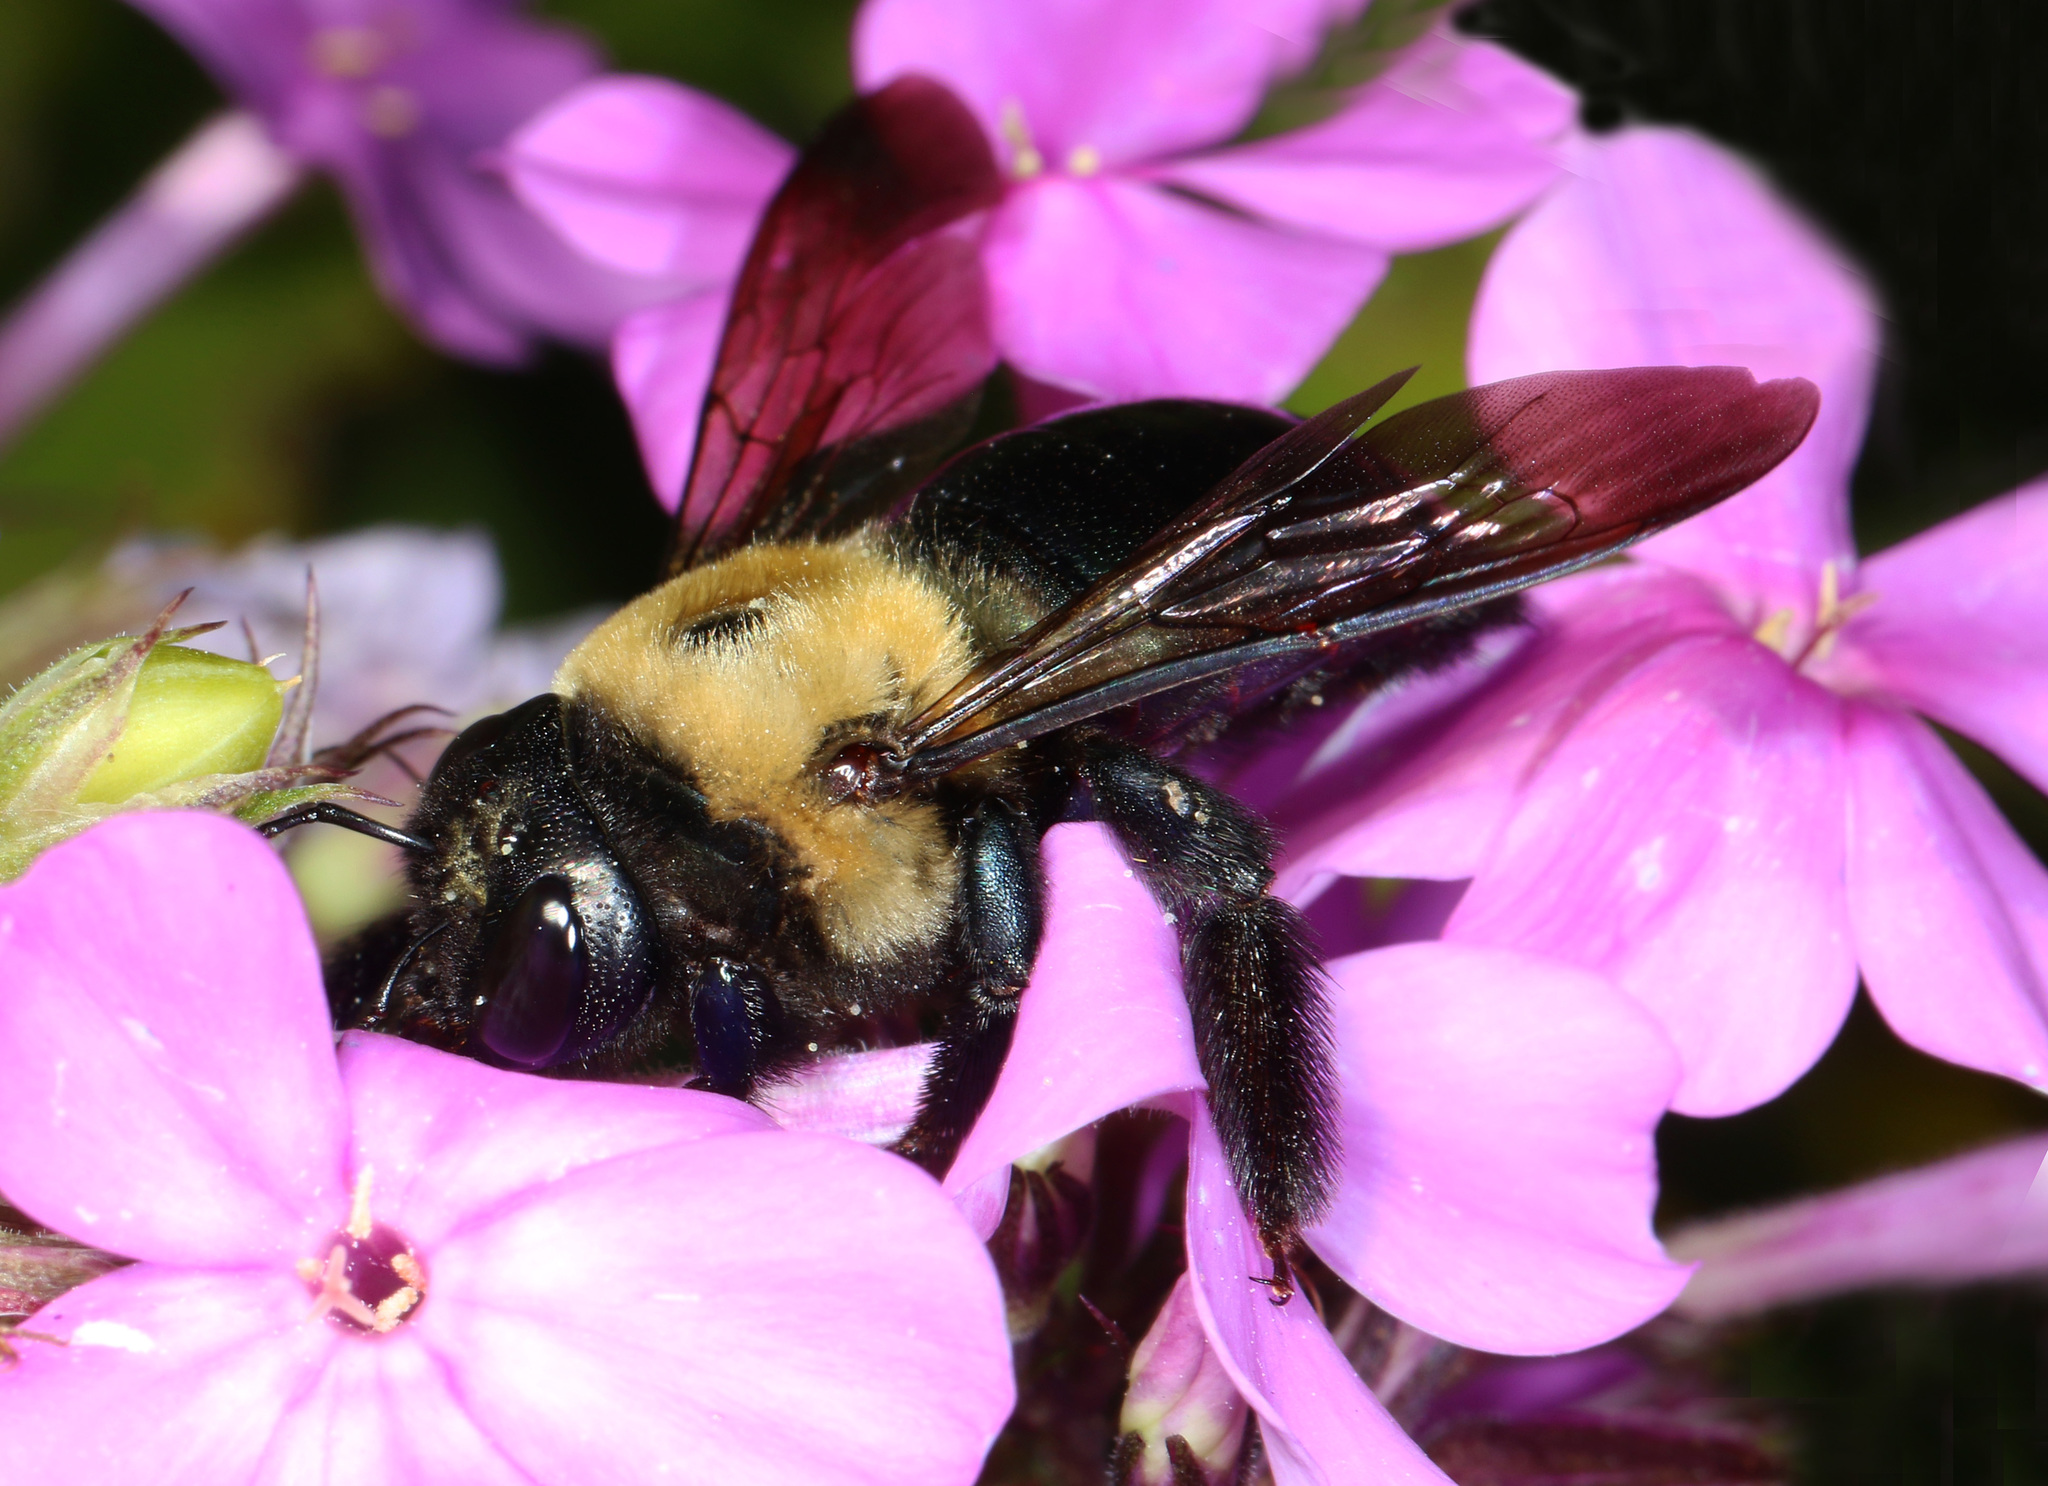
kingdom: Animalia
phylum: Arthropoda
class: Insecta
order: Hymenoptera
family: Apidae
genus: Xylocopa
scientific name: Xylocopa virginica
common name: Carpenter bee
